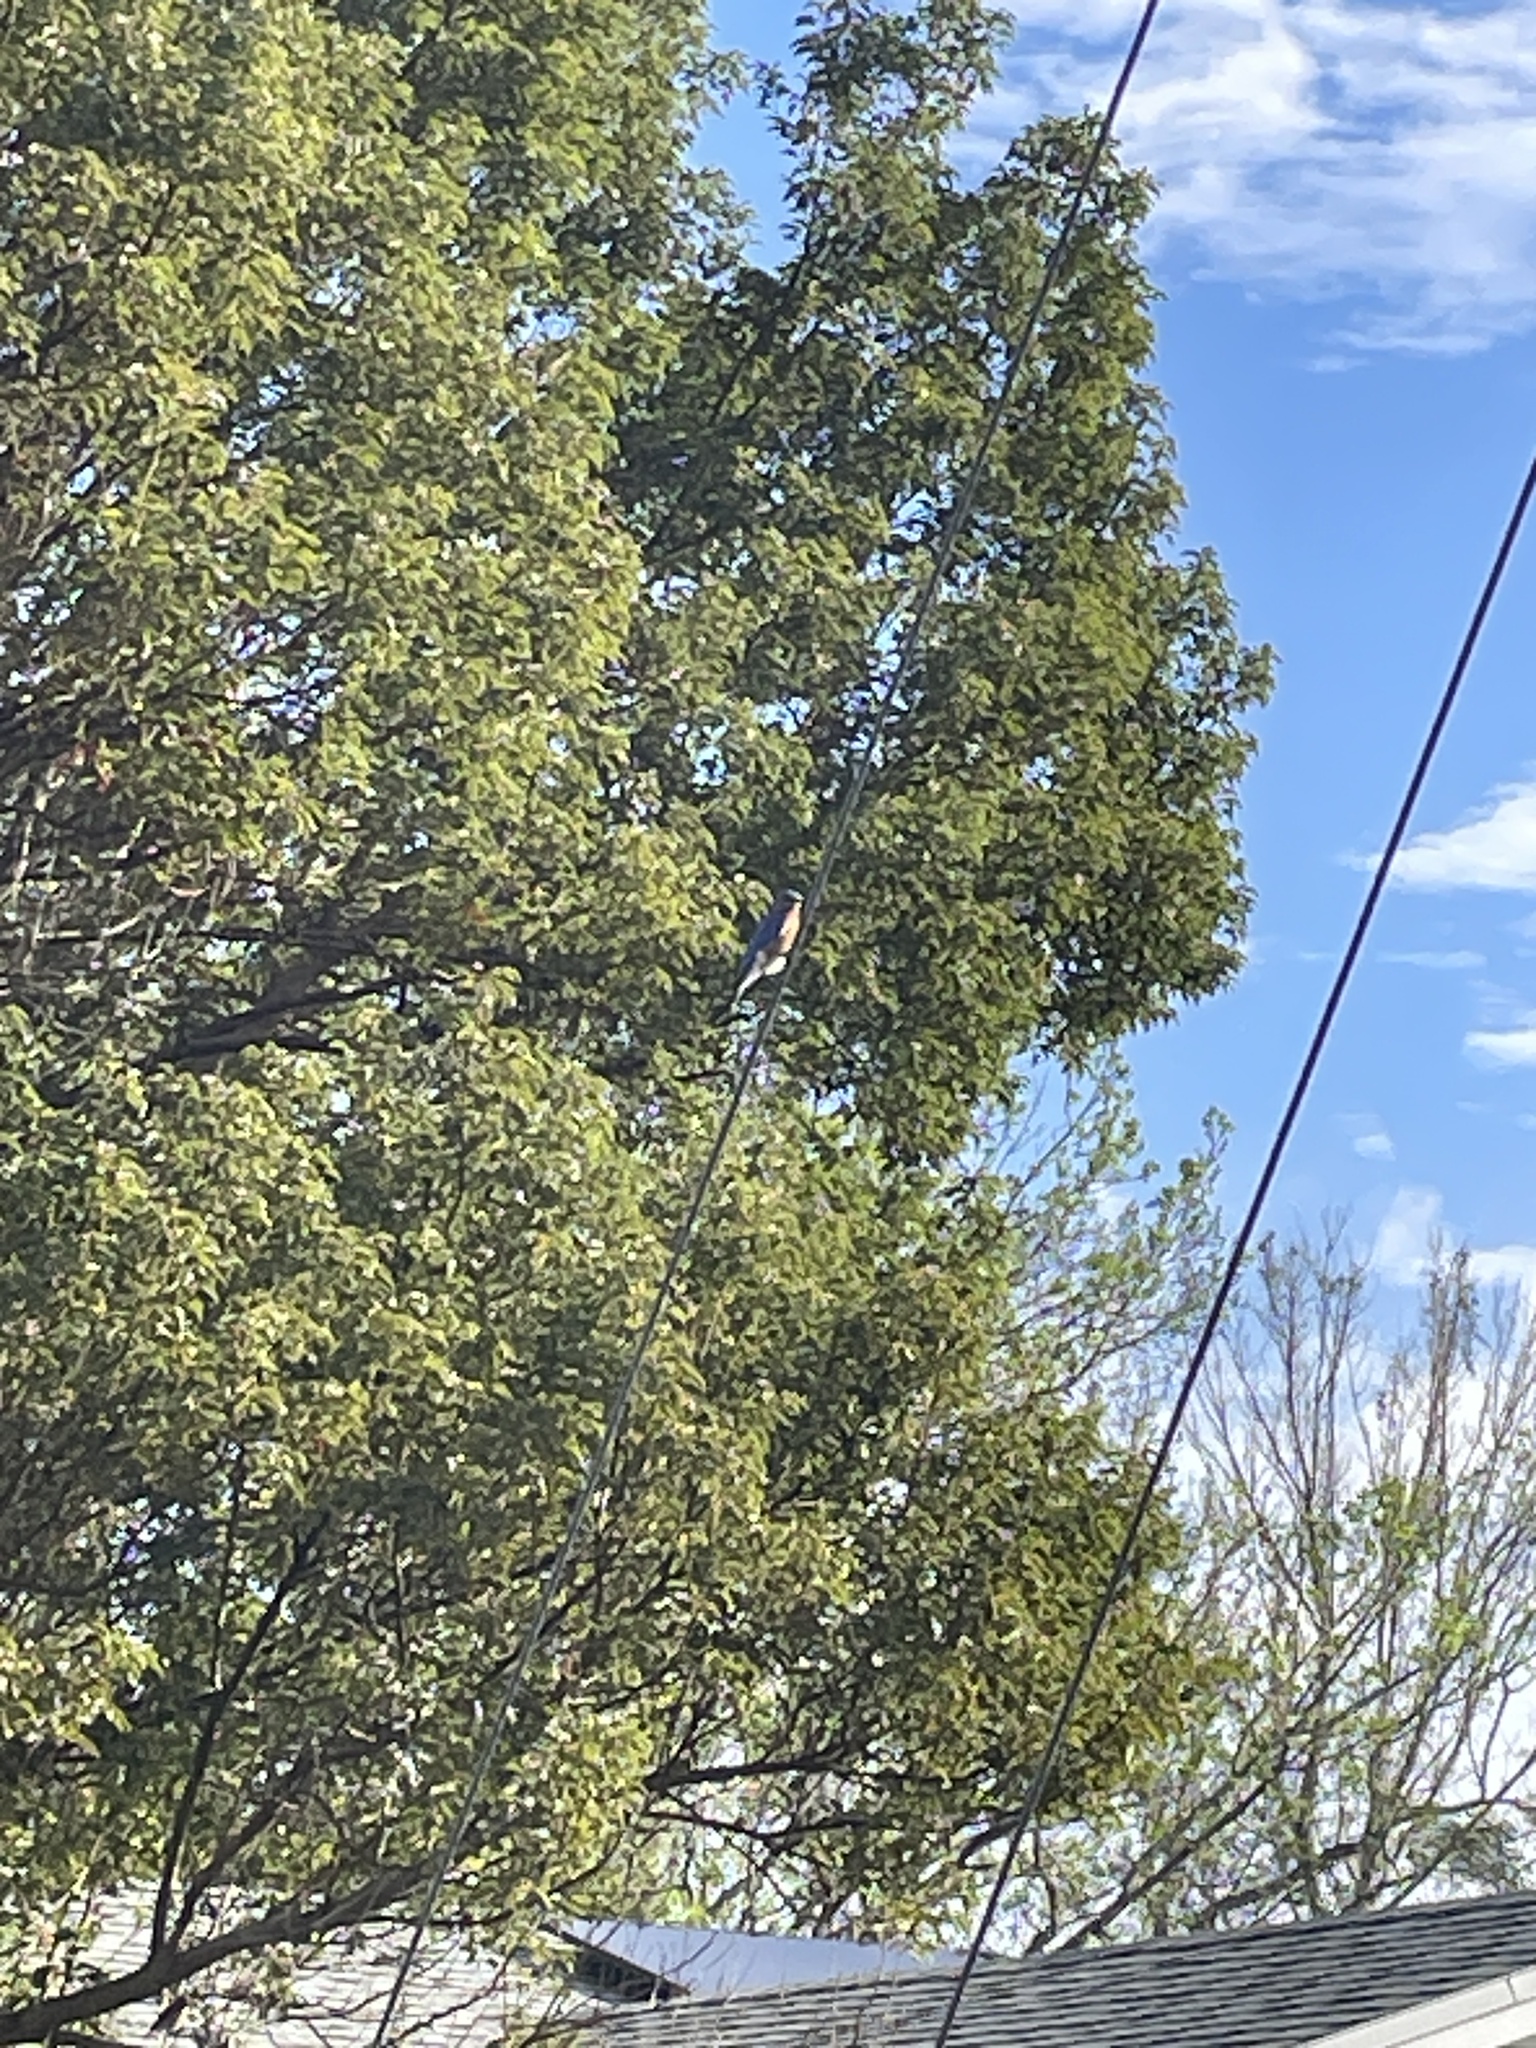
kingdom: Animalia
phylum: Chordata
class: Aves
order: Passeriformes
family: Turdidae
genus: Sialia
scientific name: Sialia sialis
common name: Eastern bluebird
